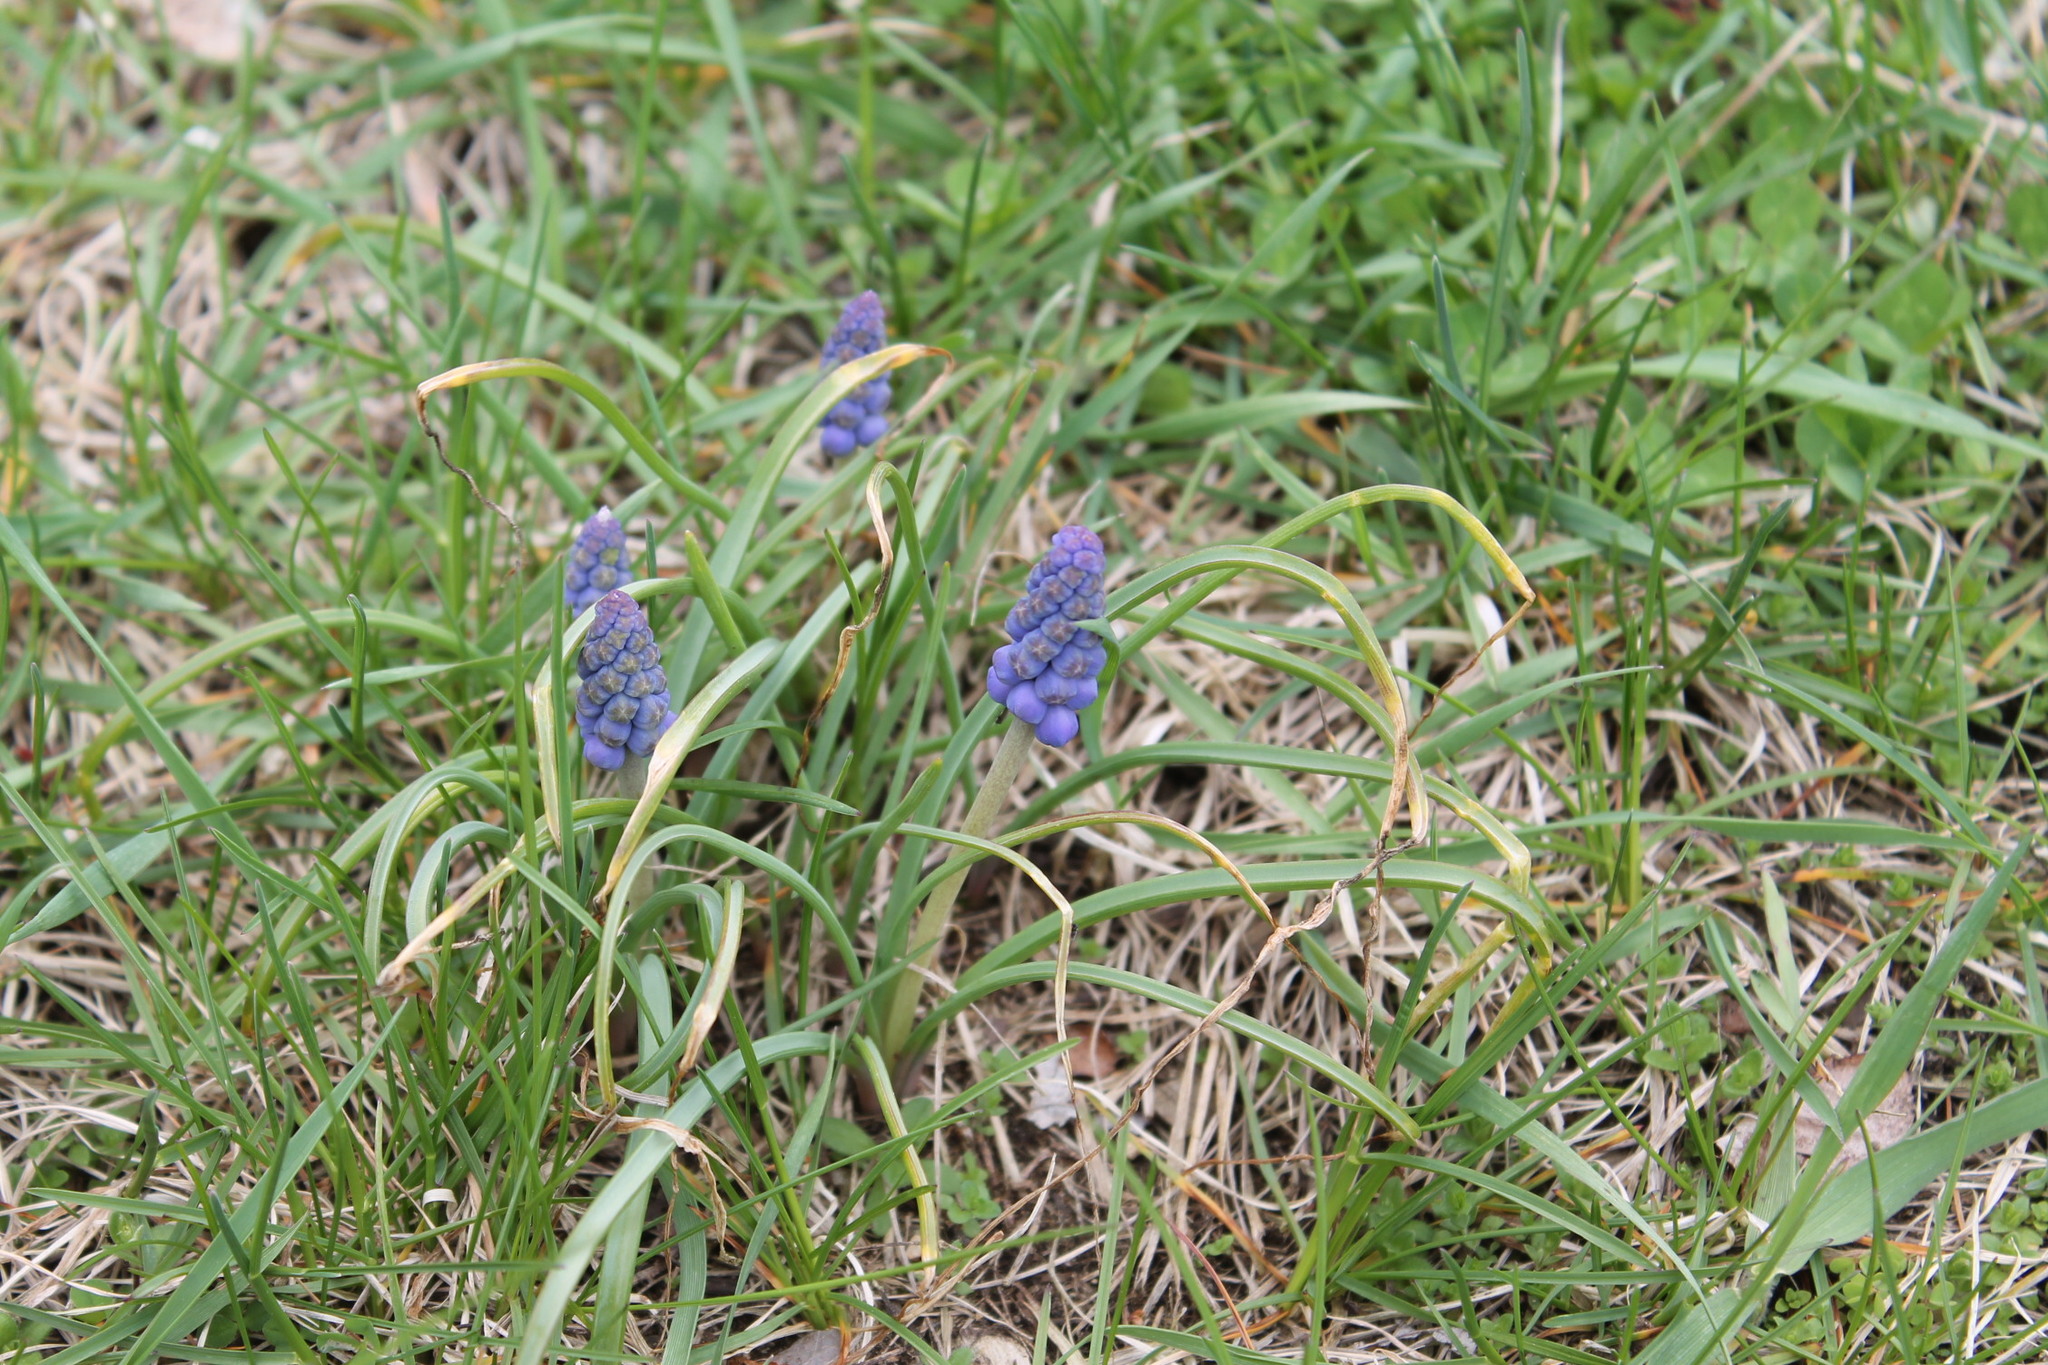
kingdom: Plantae
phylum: Tracheophyta
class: Liliopsida
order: Asparagales
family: Asparagaceae
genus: Muscari
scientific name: Muscari botryoides
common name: Compact grape-hyacinth
